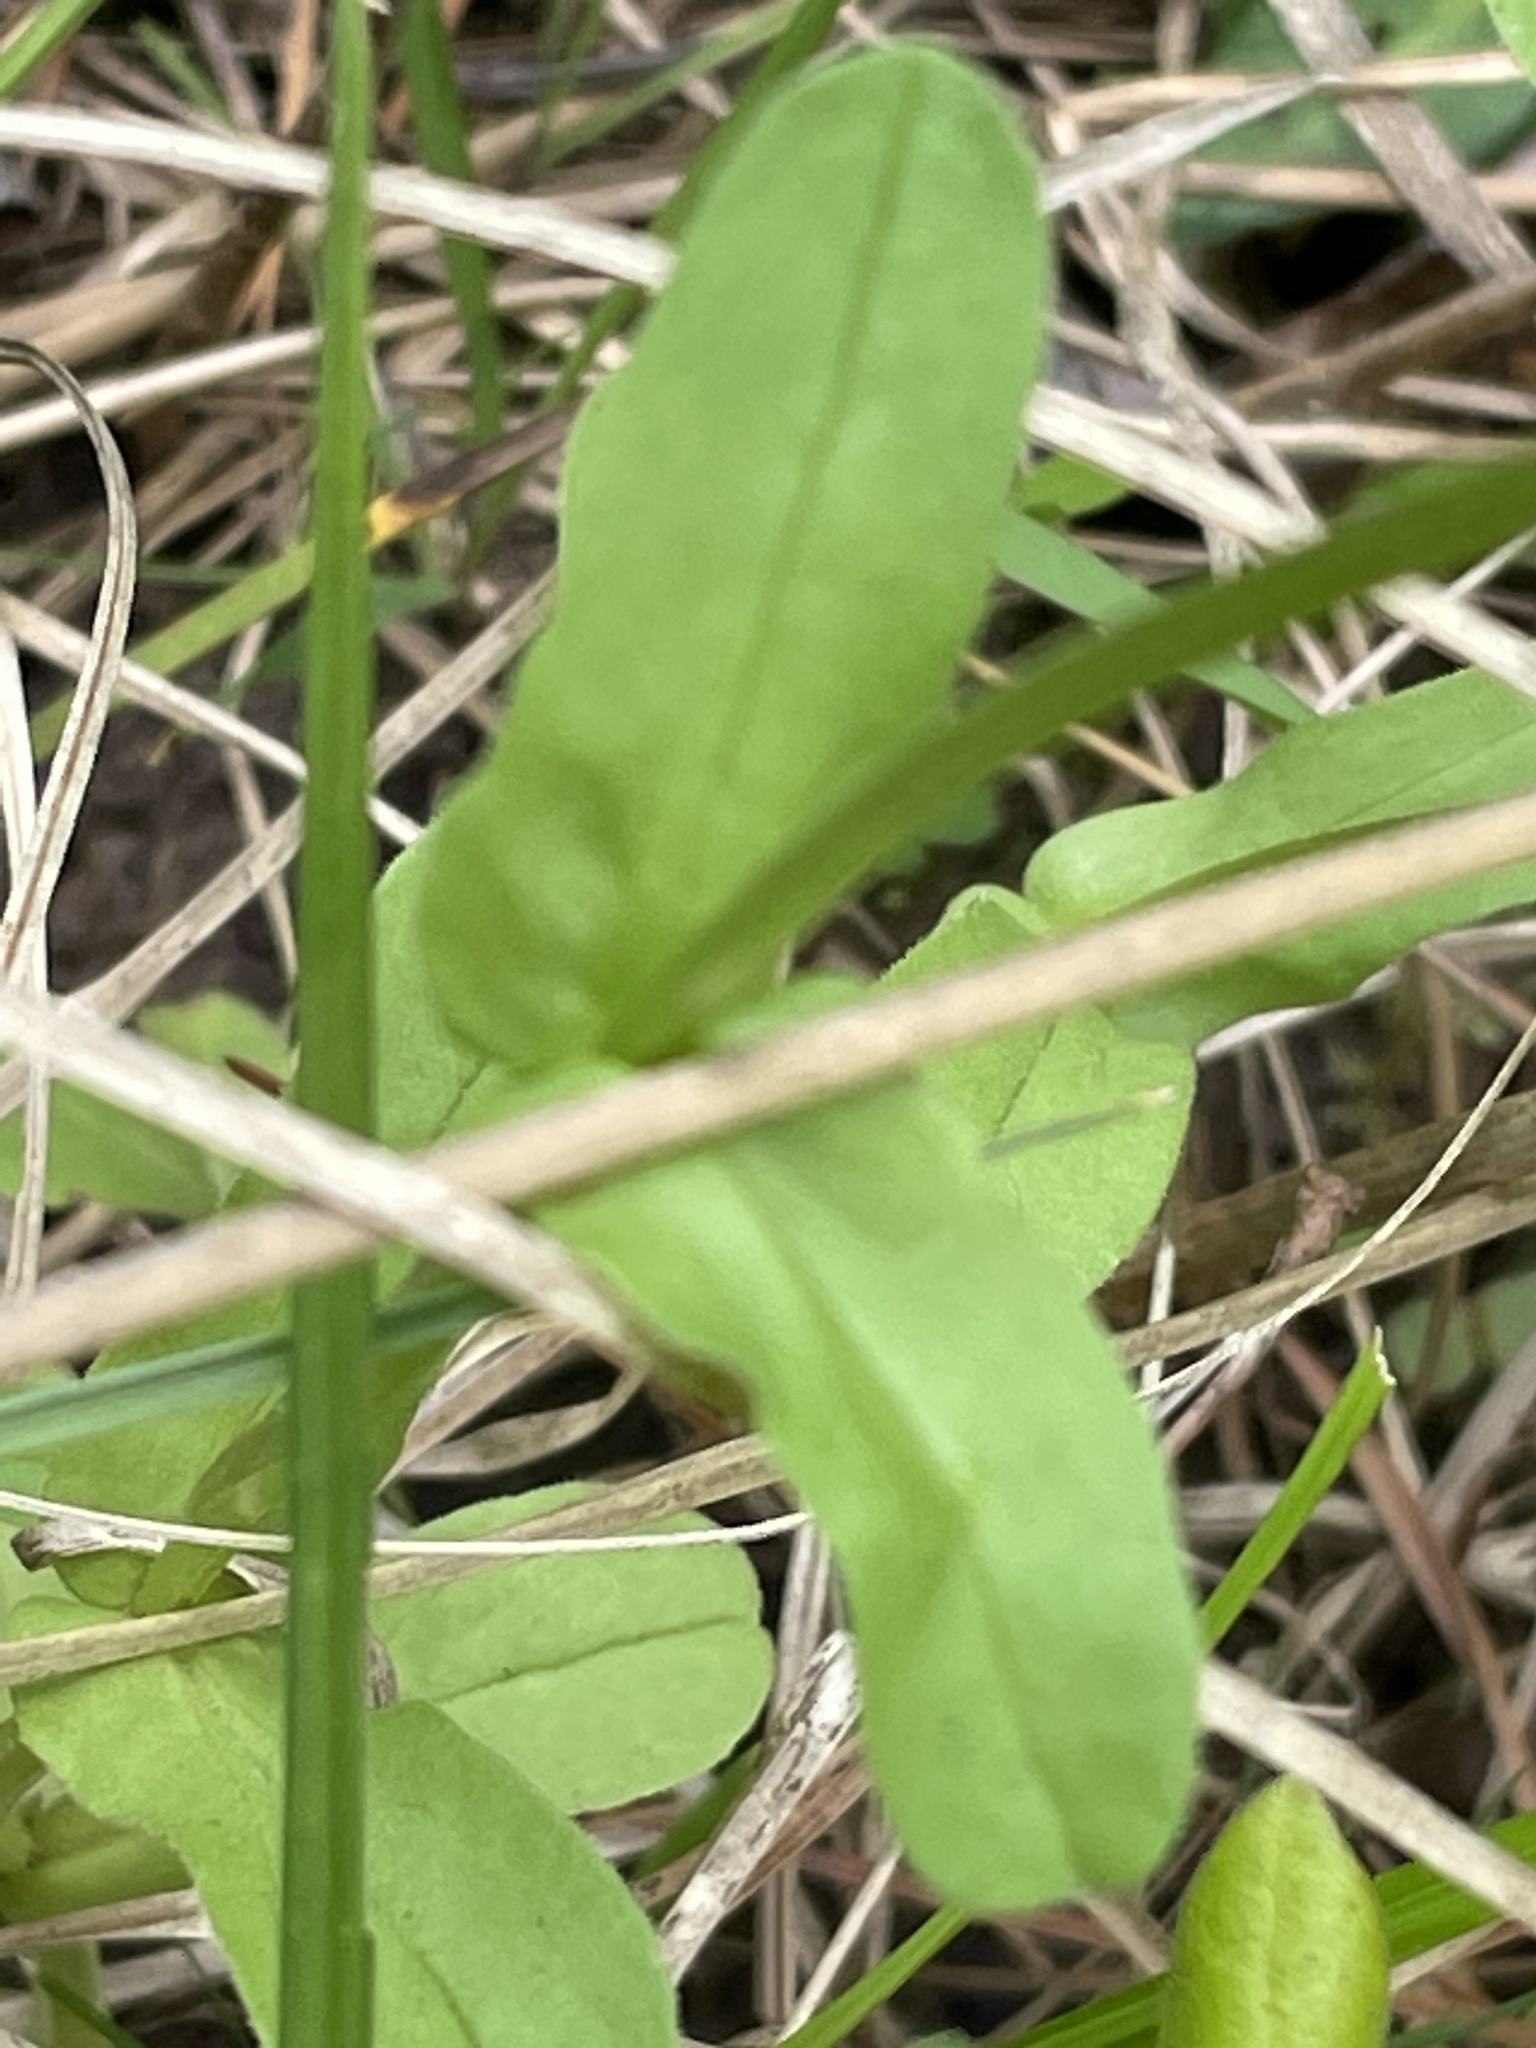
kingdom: Plantae
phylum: Tracheophyta
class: Magnoliopsida
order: Dipsacales
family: Caprifoliaceae
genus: Valerianella
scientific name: Valerianella radiata
